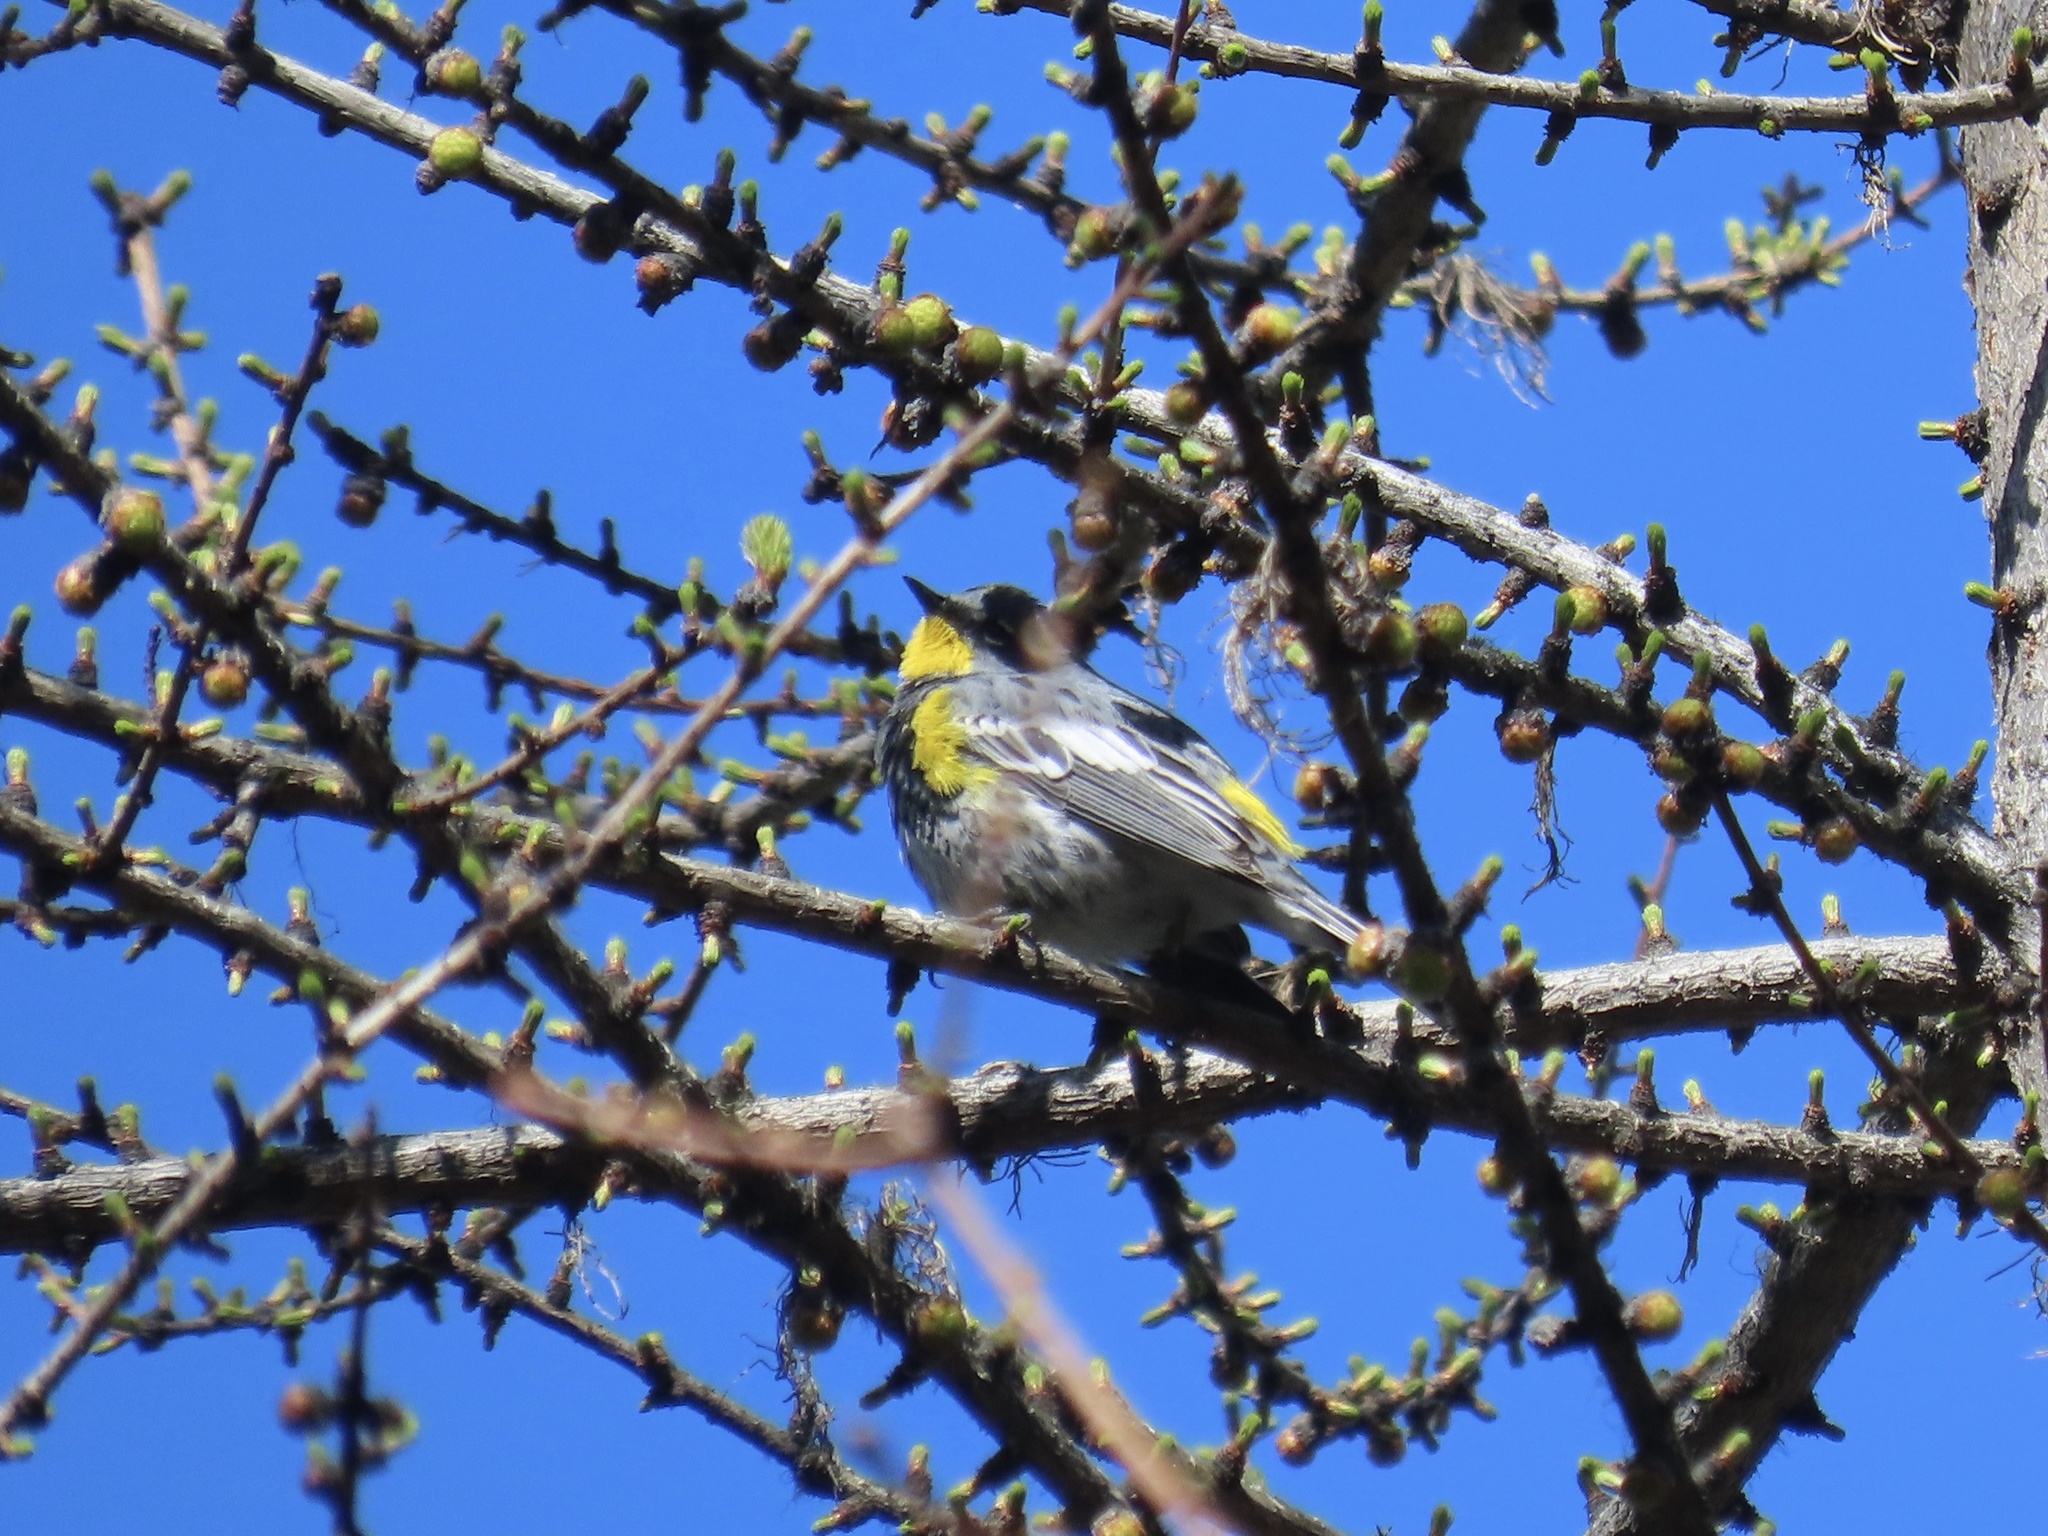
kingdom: Animalia
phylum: Chordata
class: Aves
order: Passeriformes
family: Parulidae
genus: Setophaga
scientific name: Setophaga coronata
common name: Myrtle warbler
